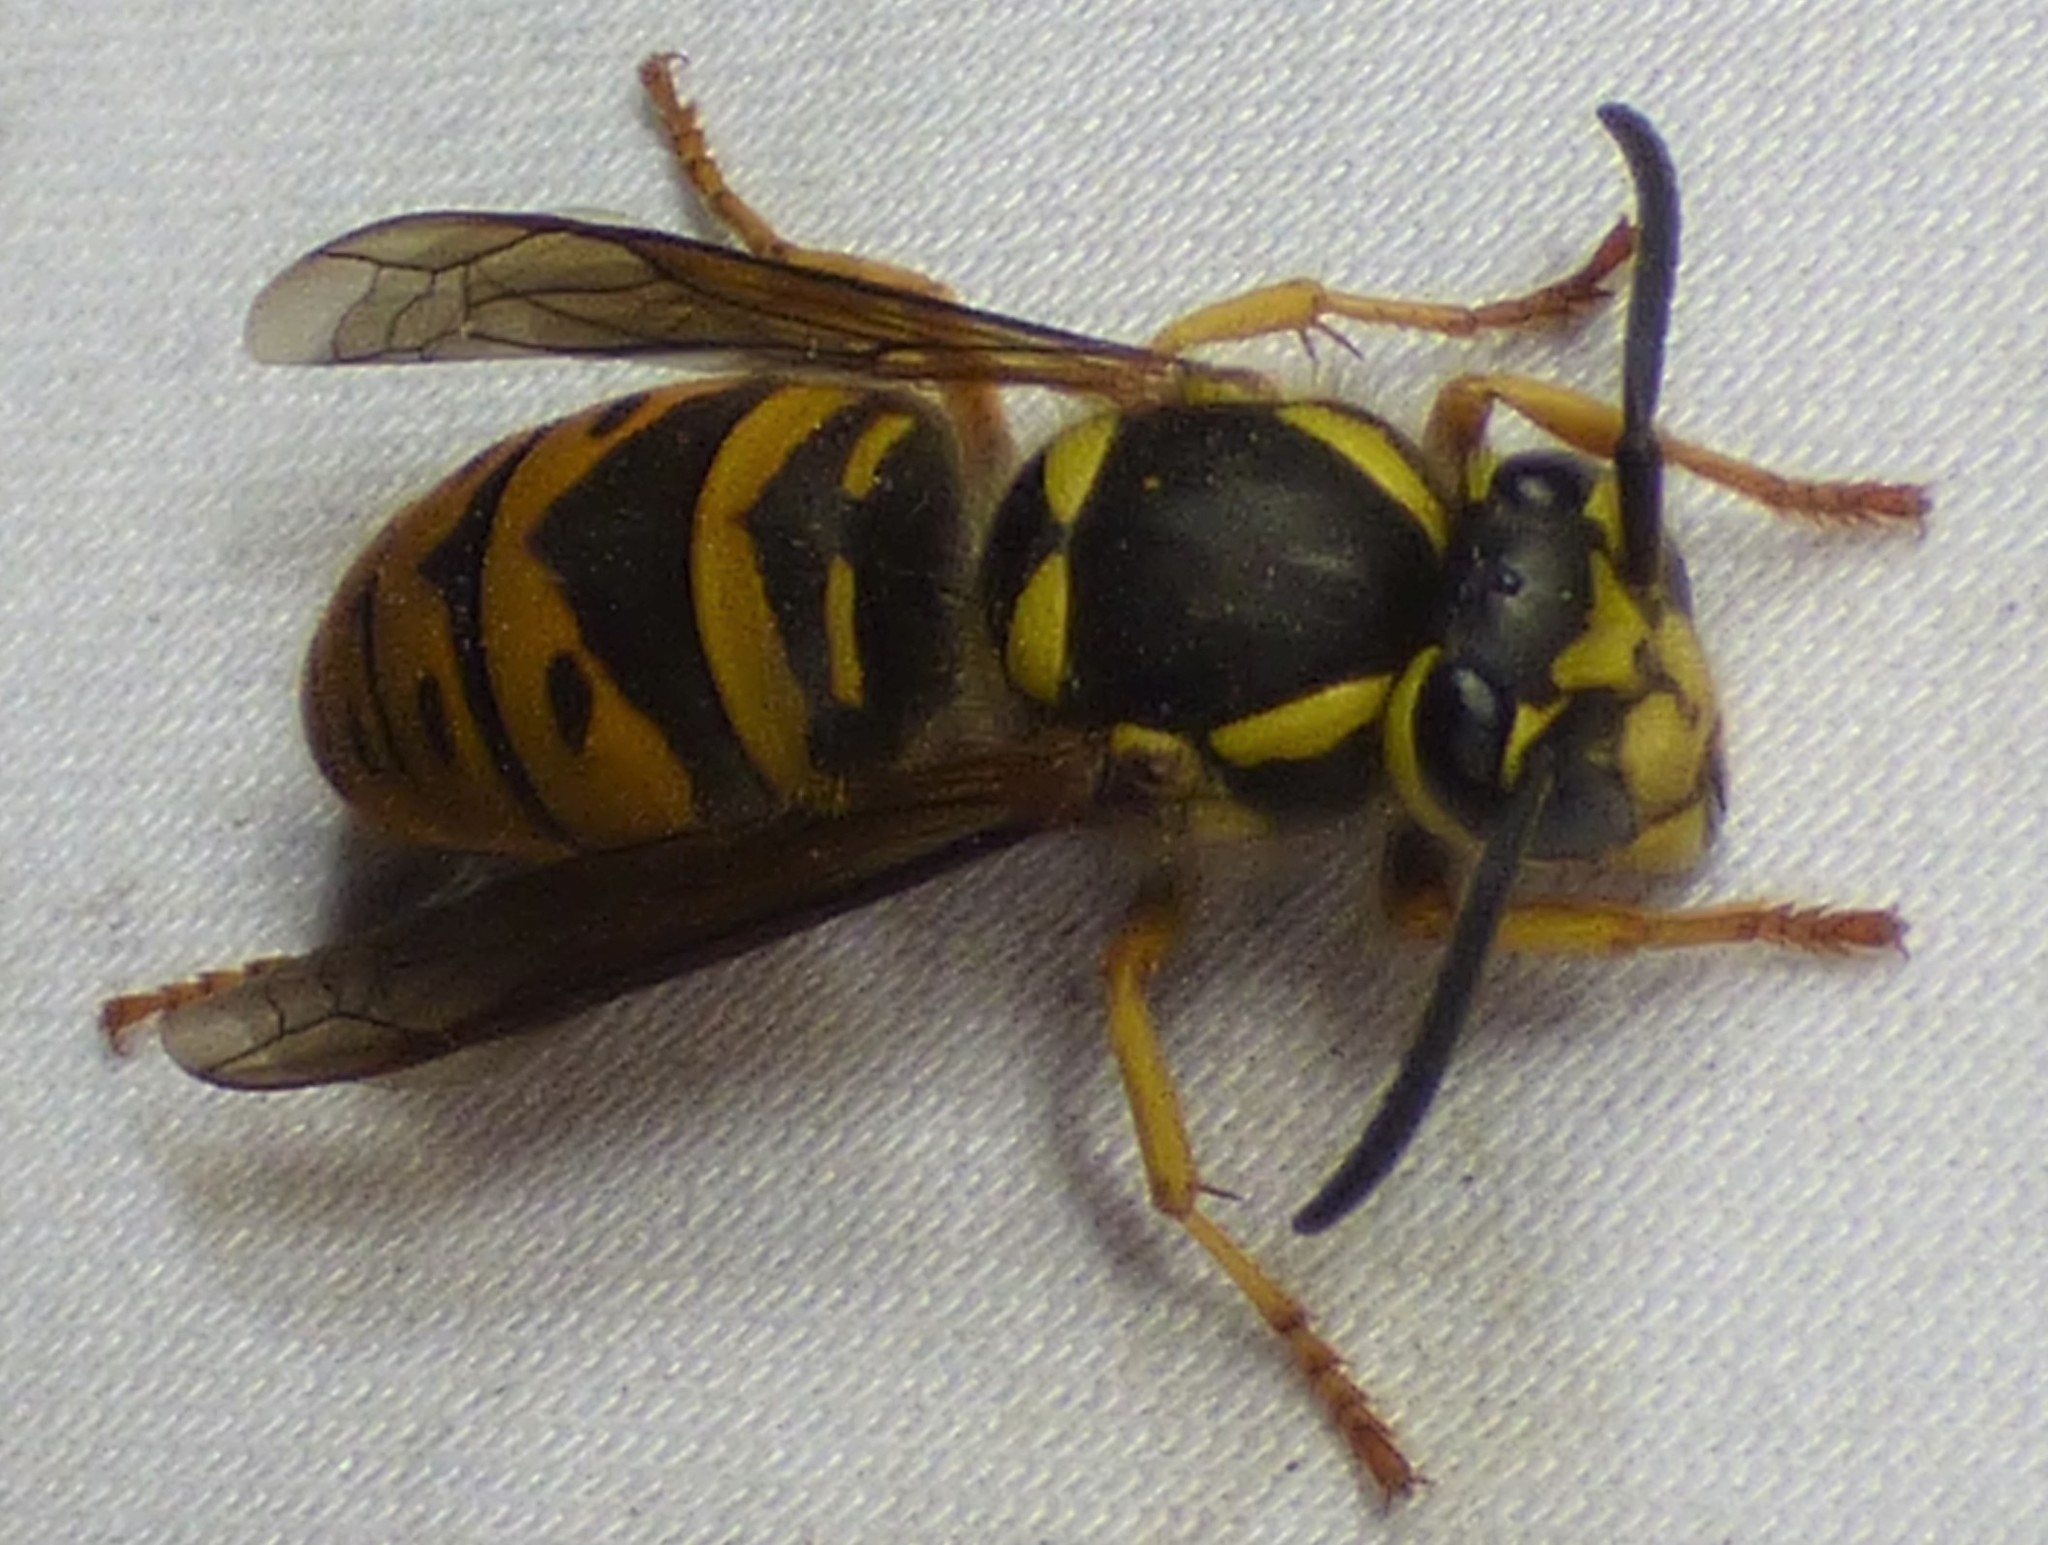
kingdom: Animalia
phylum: Arthropoda
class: Insecta
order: Hymenoptera
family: Vespidae
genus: Vespula
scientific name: Vespula maculifrons
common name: Eastern yellowjacket
